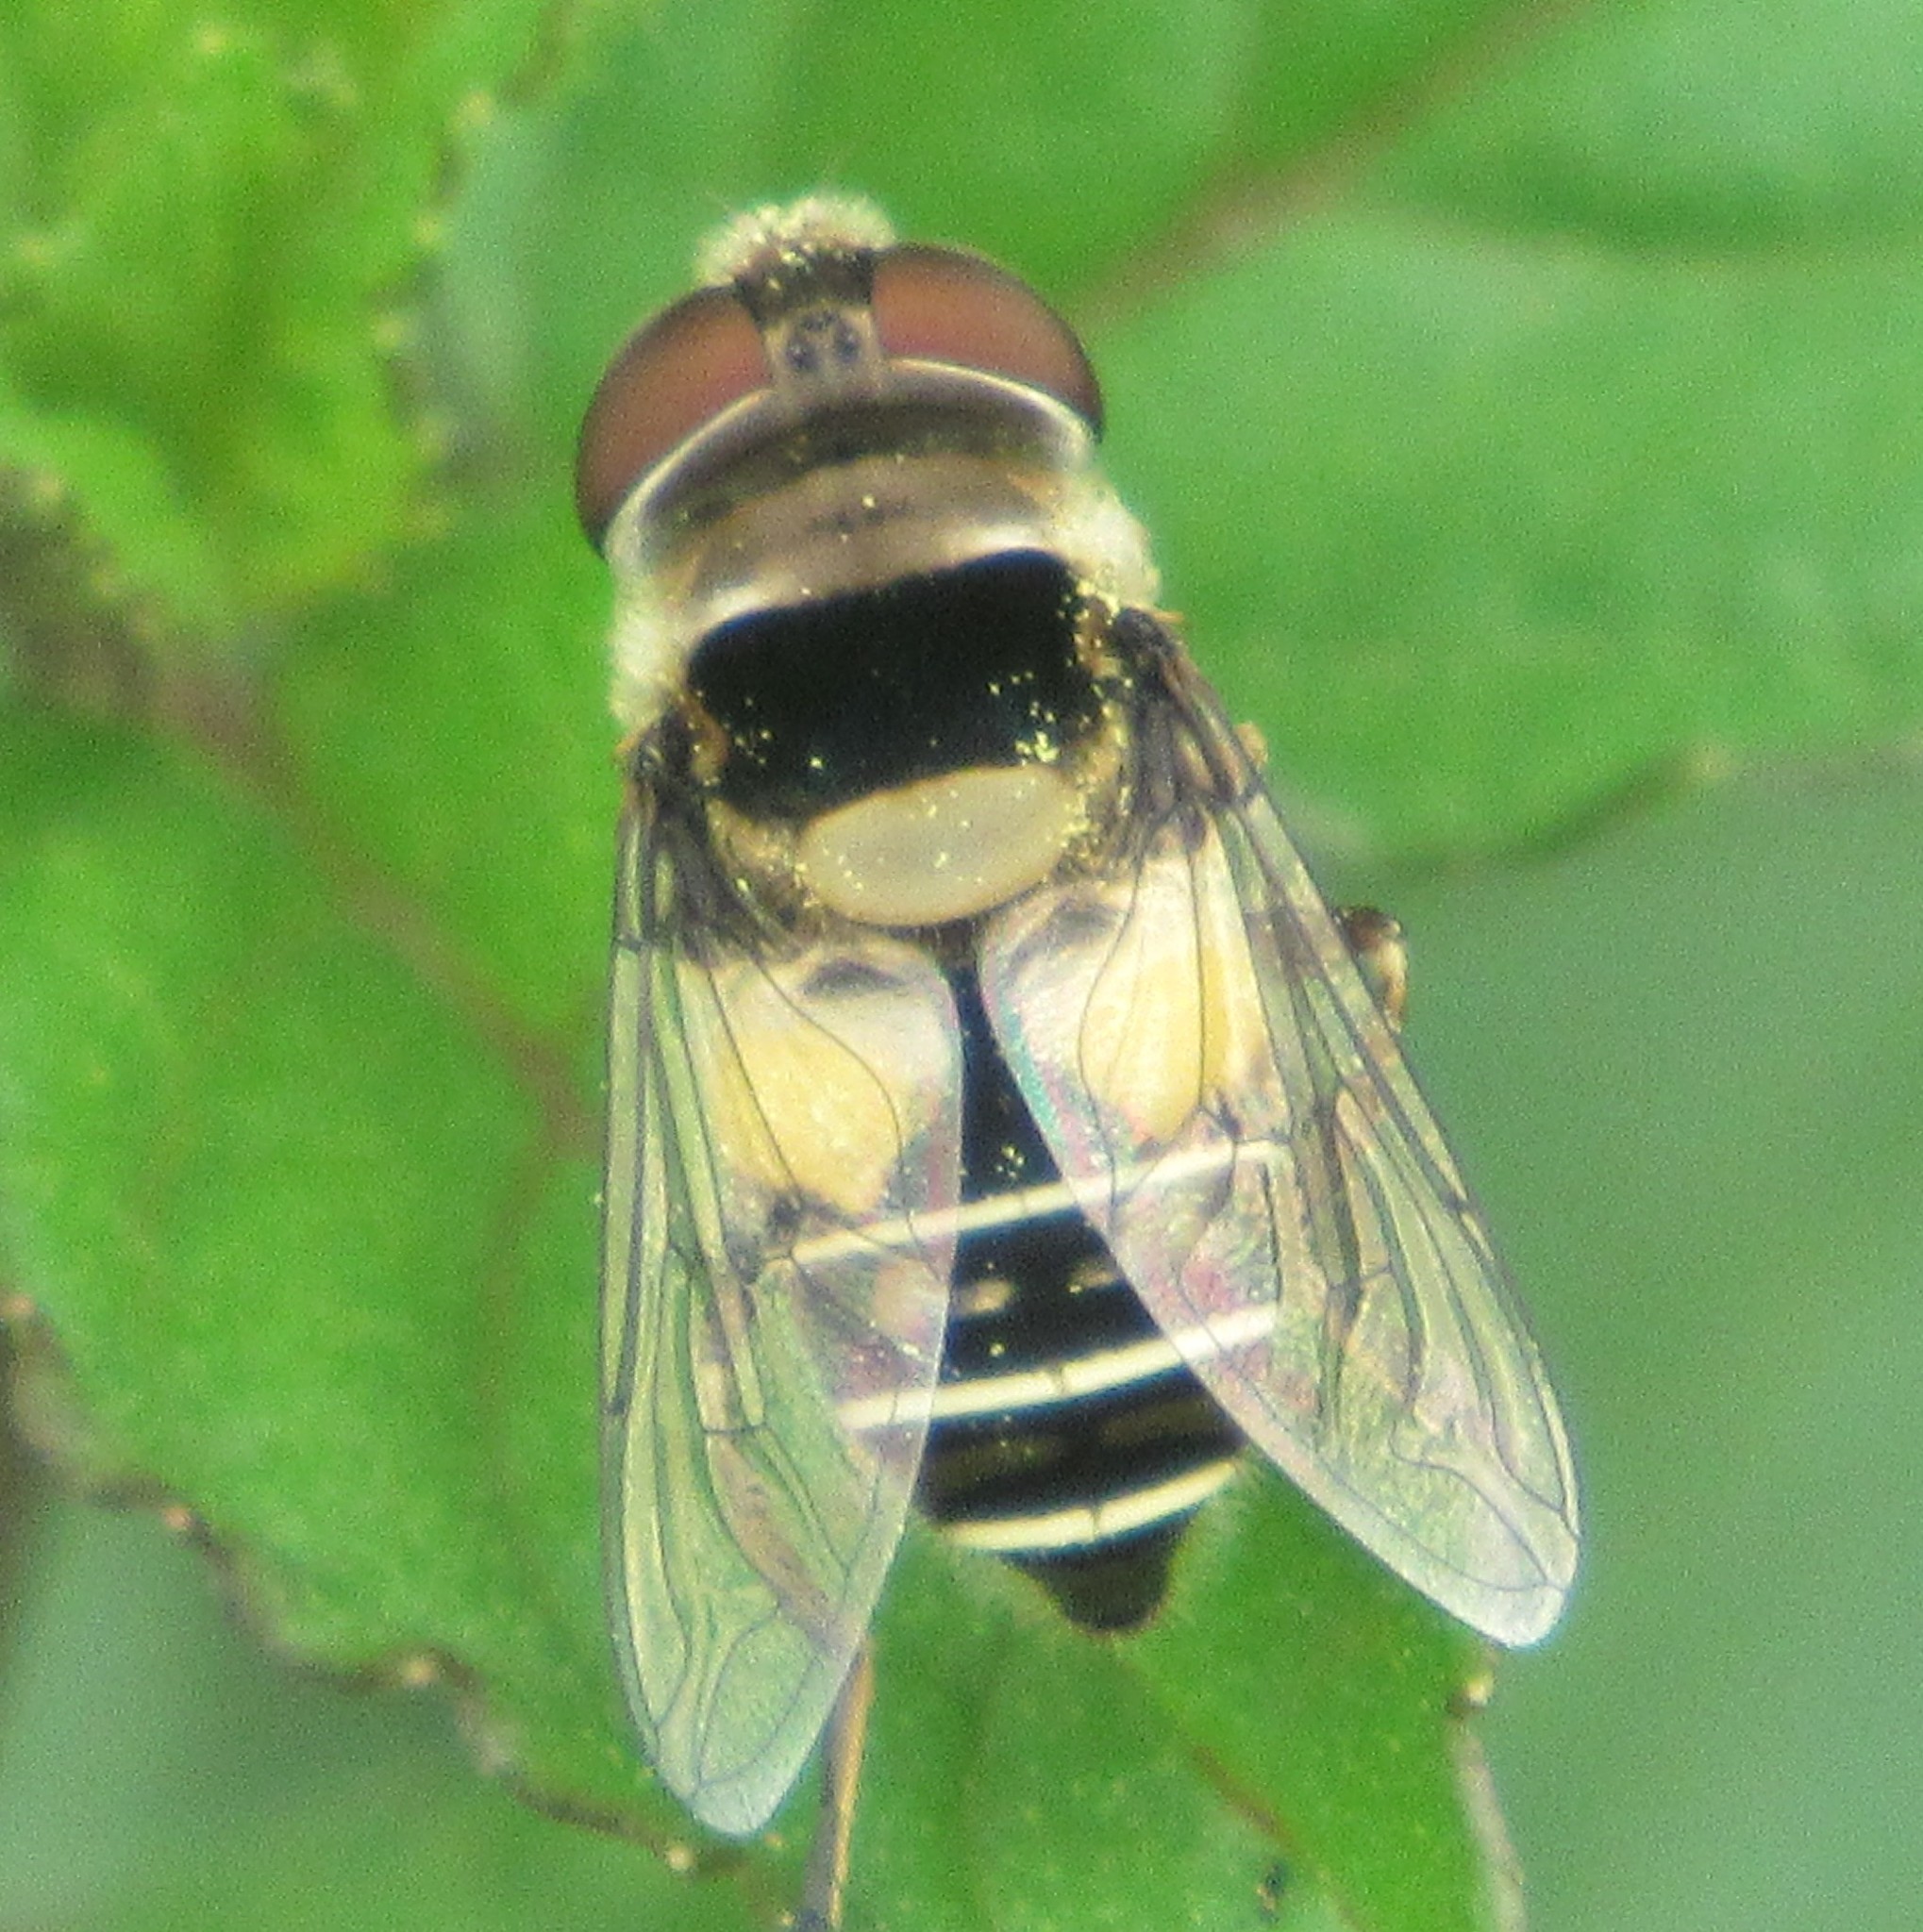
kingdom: Animalia
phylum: Arthropoda
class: Insecta
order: Diptera
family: Syrphidae
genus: Palpada
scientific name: Palpada pusilla
